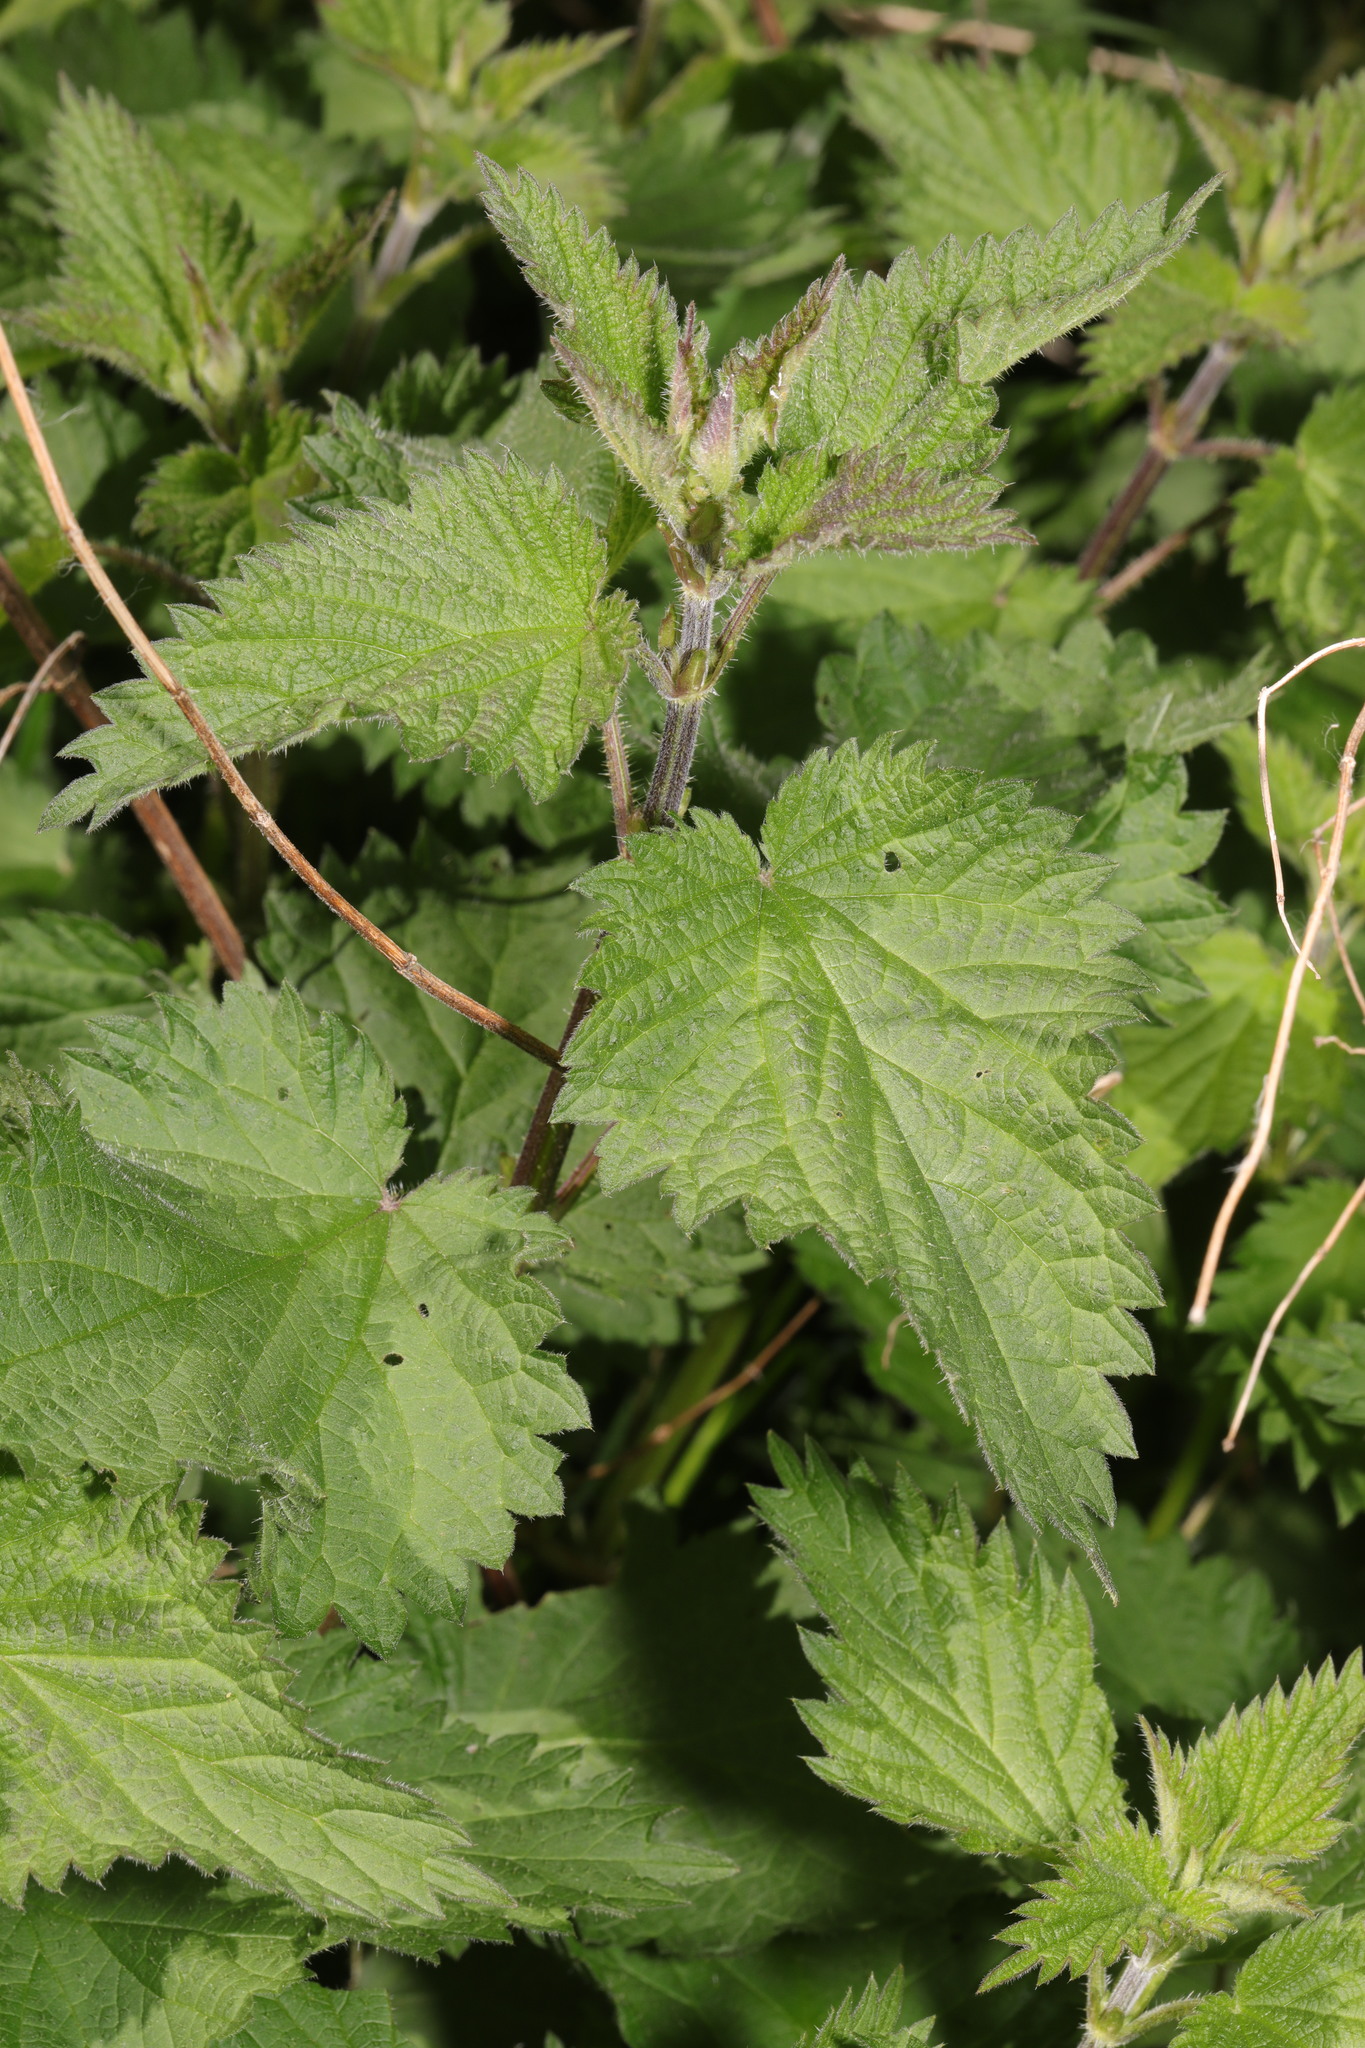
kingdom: Plantae
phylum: Tracheophyta
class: Magnoliopsida
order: Rosales
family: Urticaceae
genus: Urtica
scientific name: Urtica dioica
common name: Common nettle
